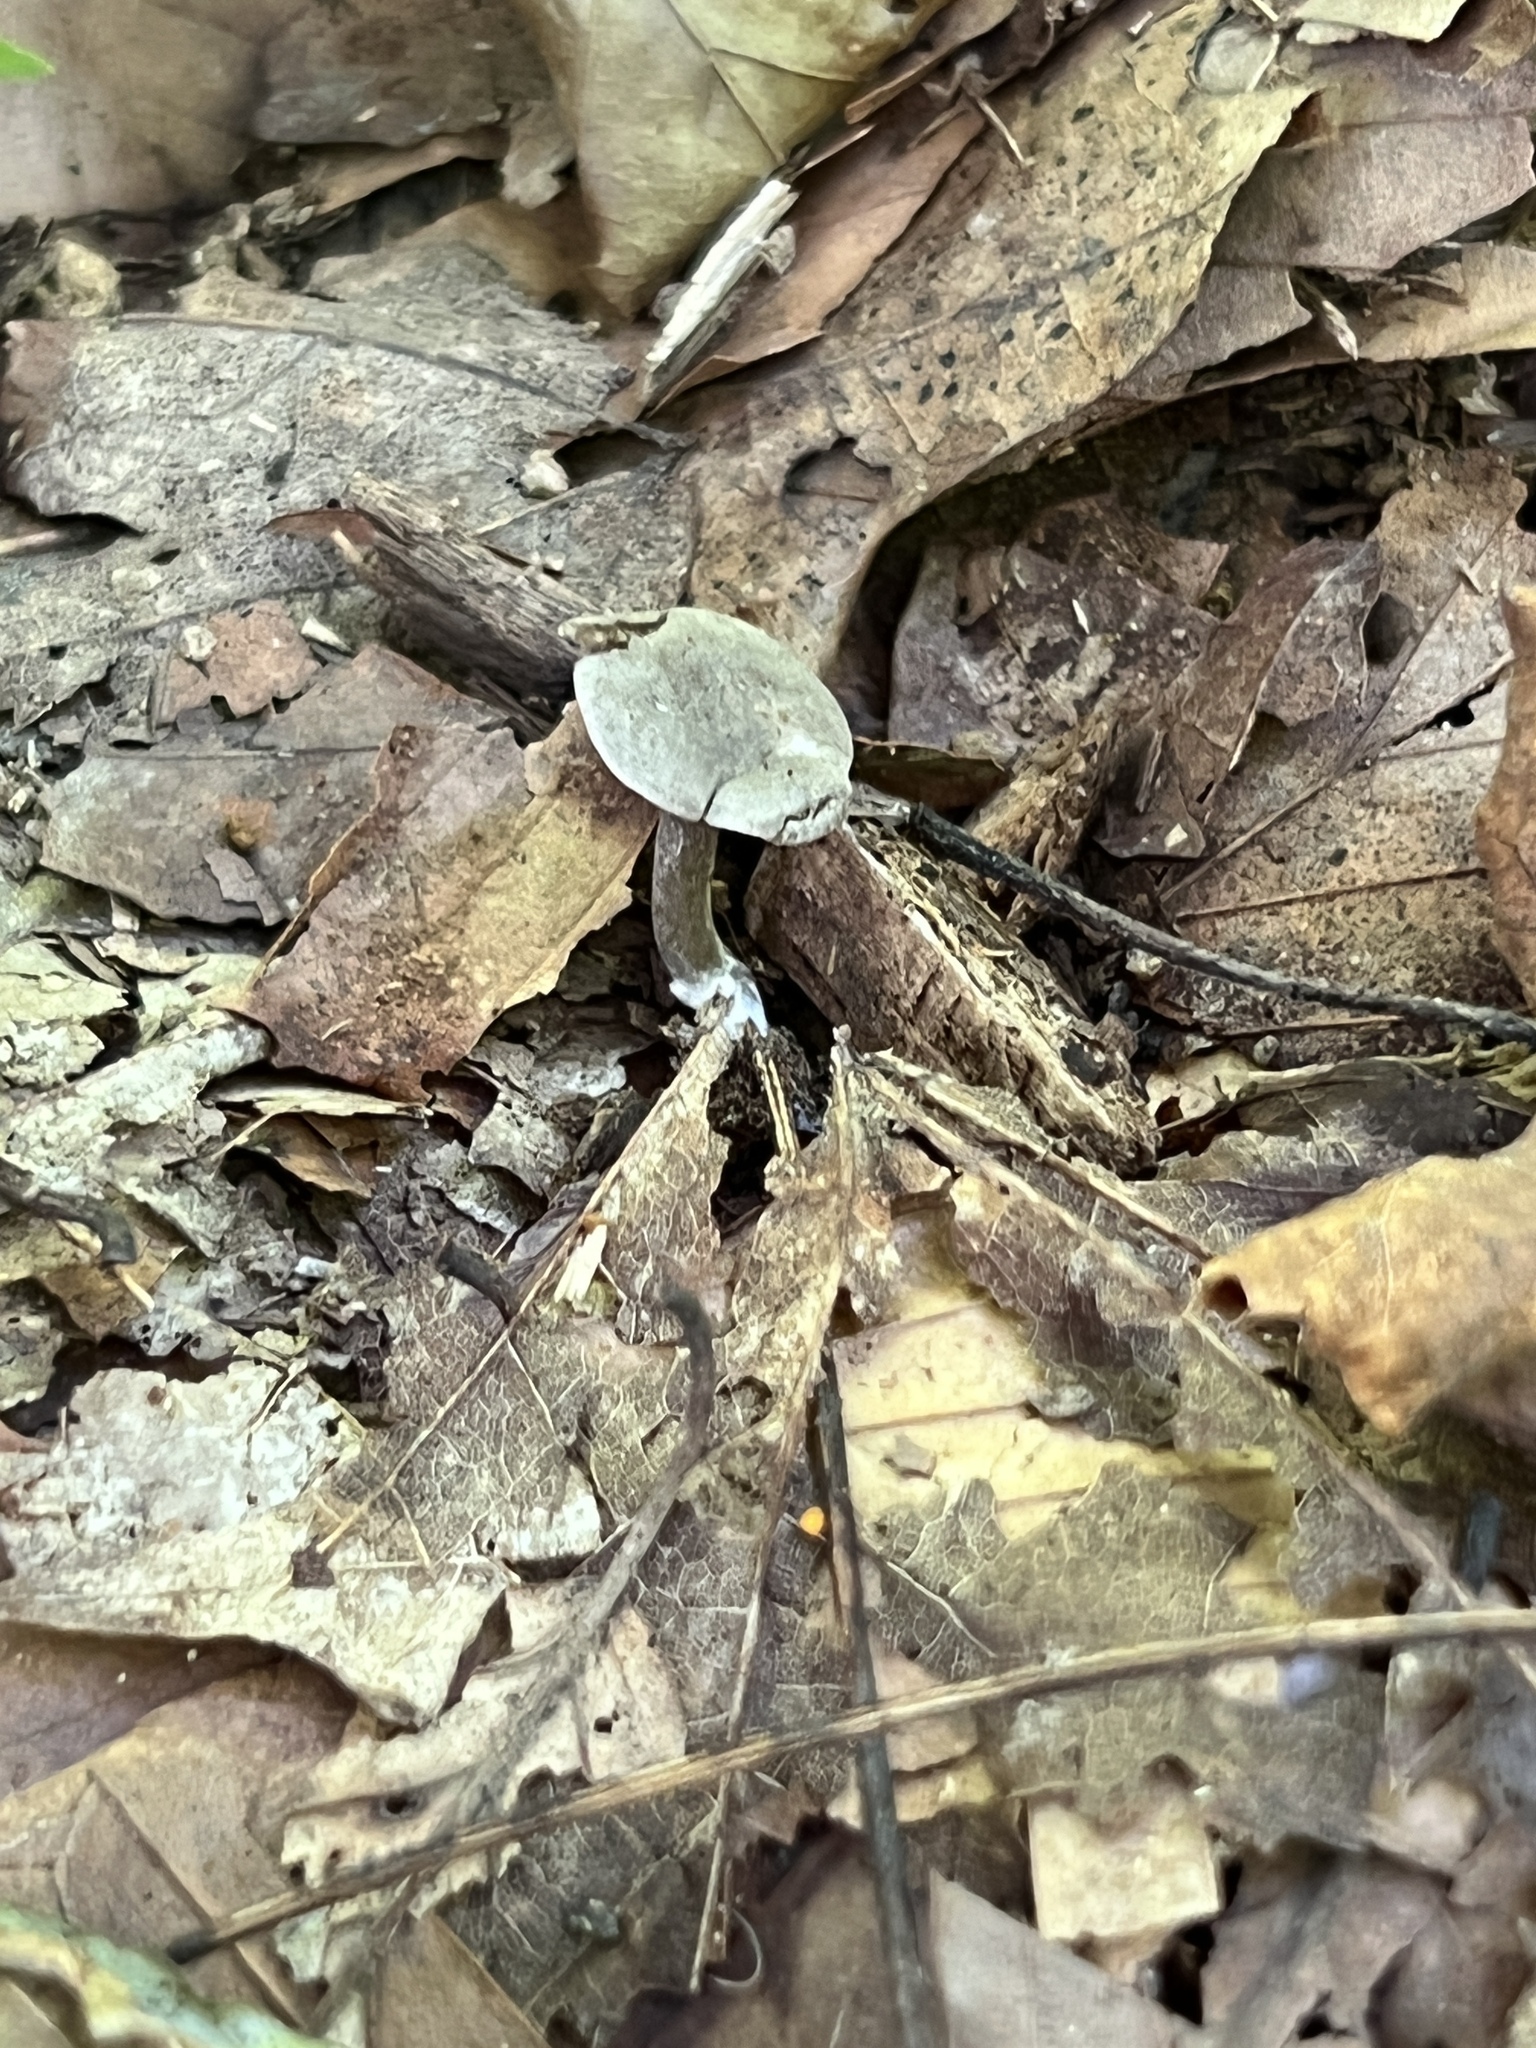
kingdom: Fungi
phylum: Basidiomycota
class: Agaricomycetes
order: Agaricales
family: Entolomataceae
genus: Clitopilus
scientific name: Clitopilus brunnescens
